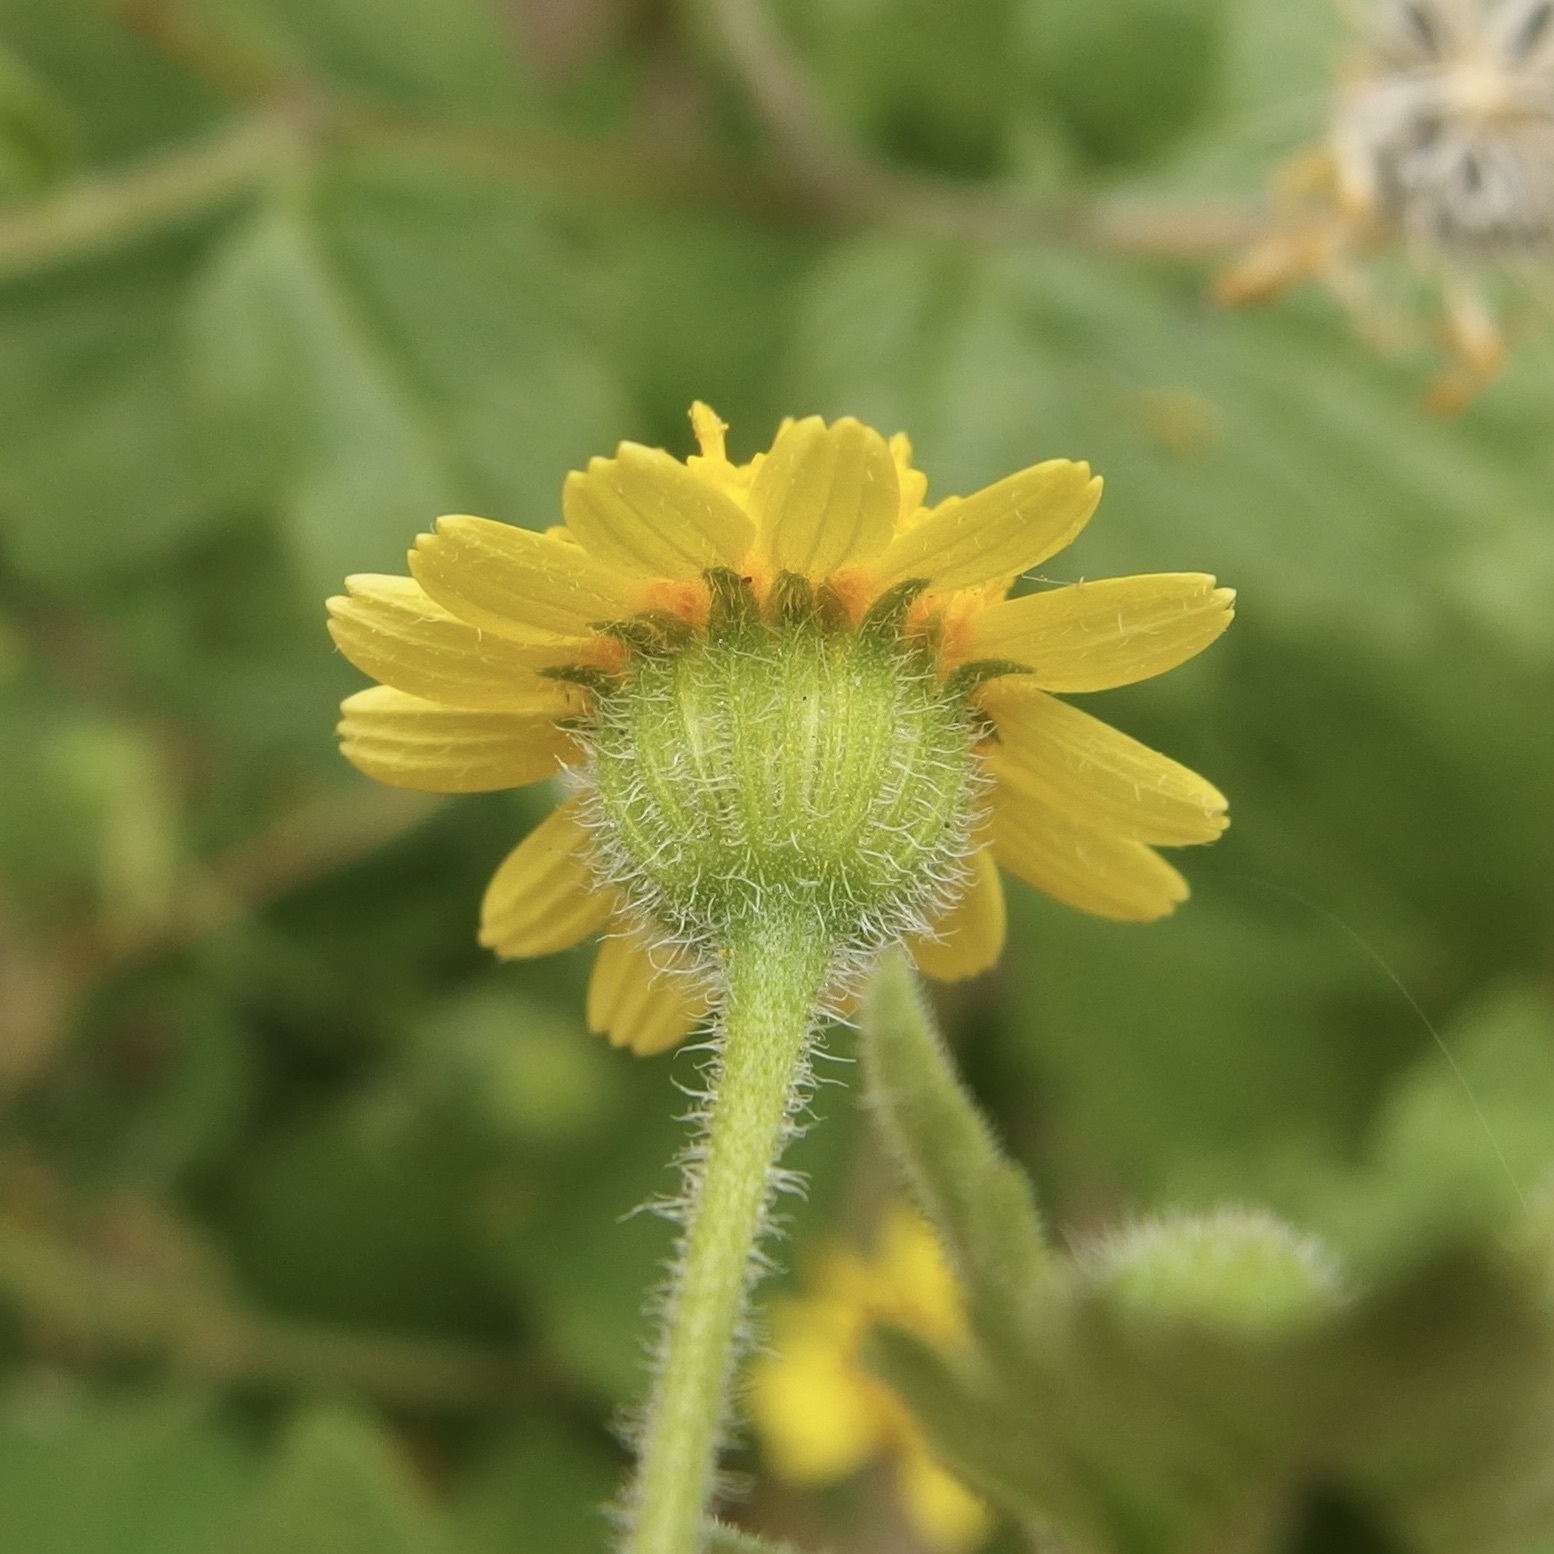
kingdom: Plantae
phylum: Tracheophyta
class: Magnoliopsida
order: Asterales
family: Asteraceae
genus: Perityle
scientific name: Perityle californica
